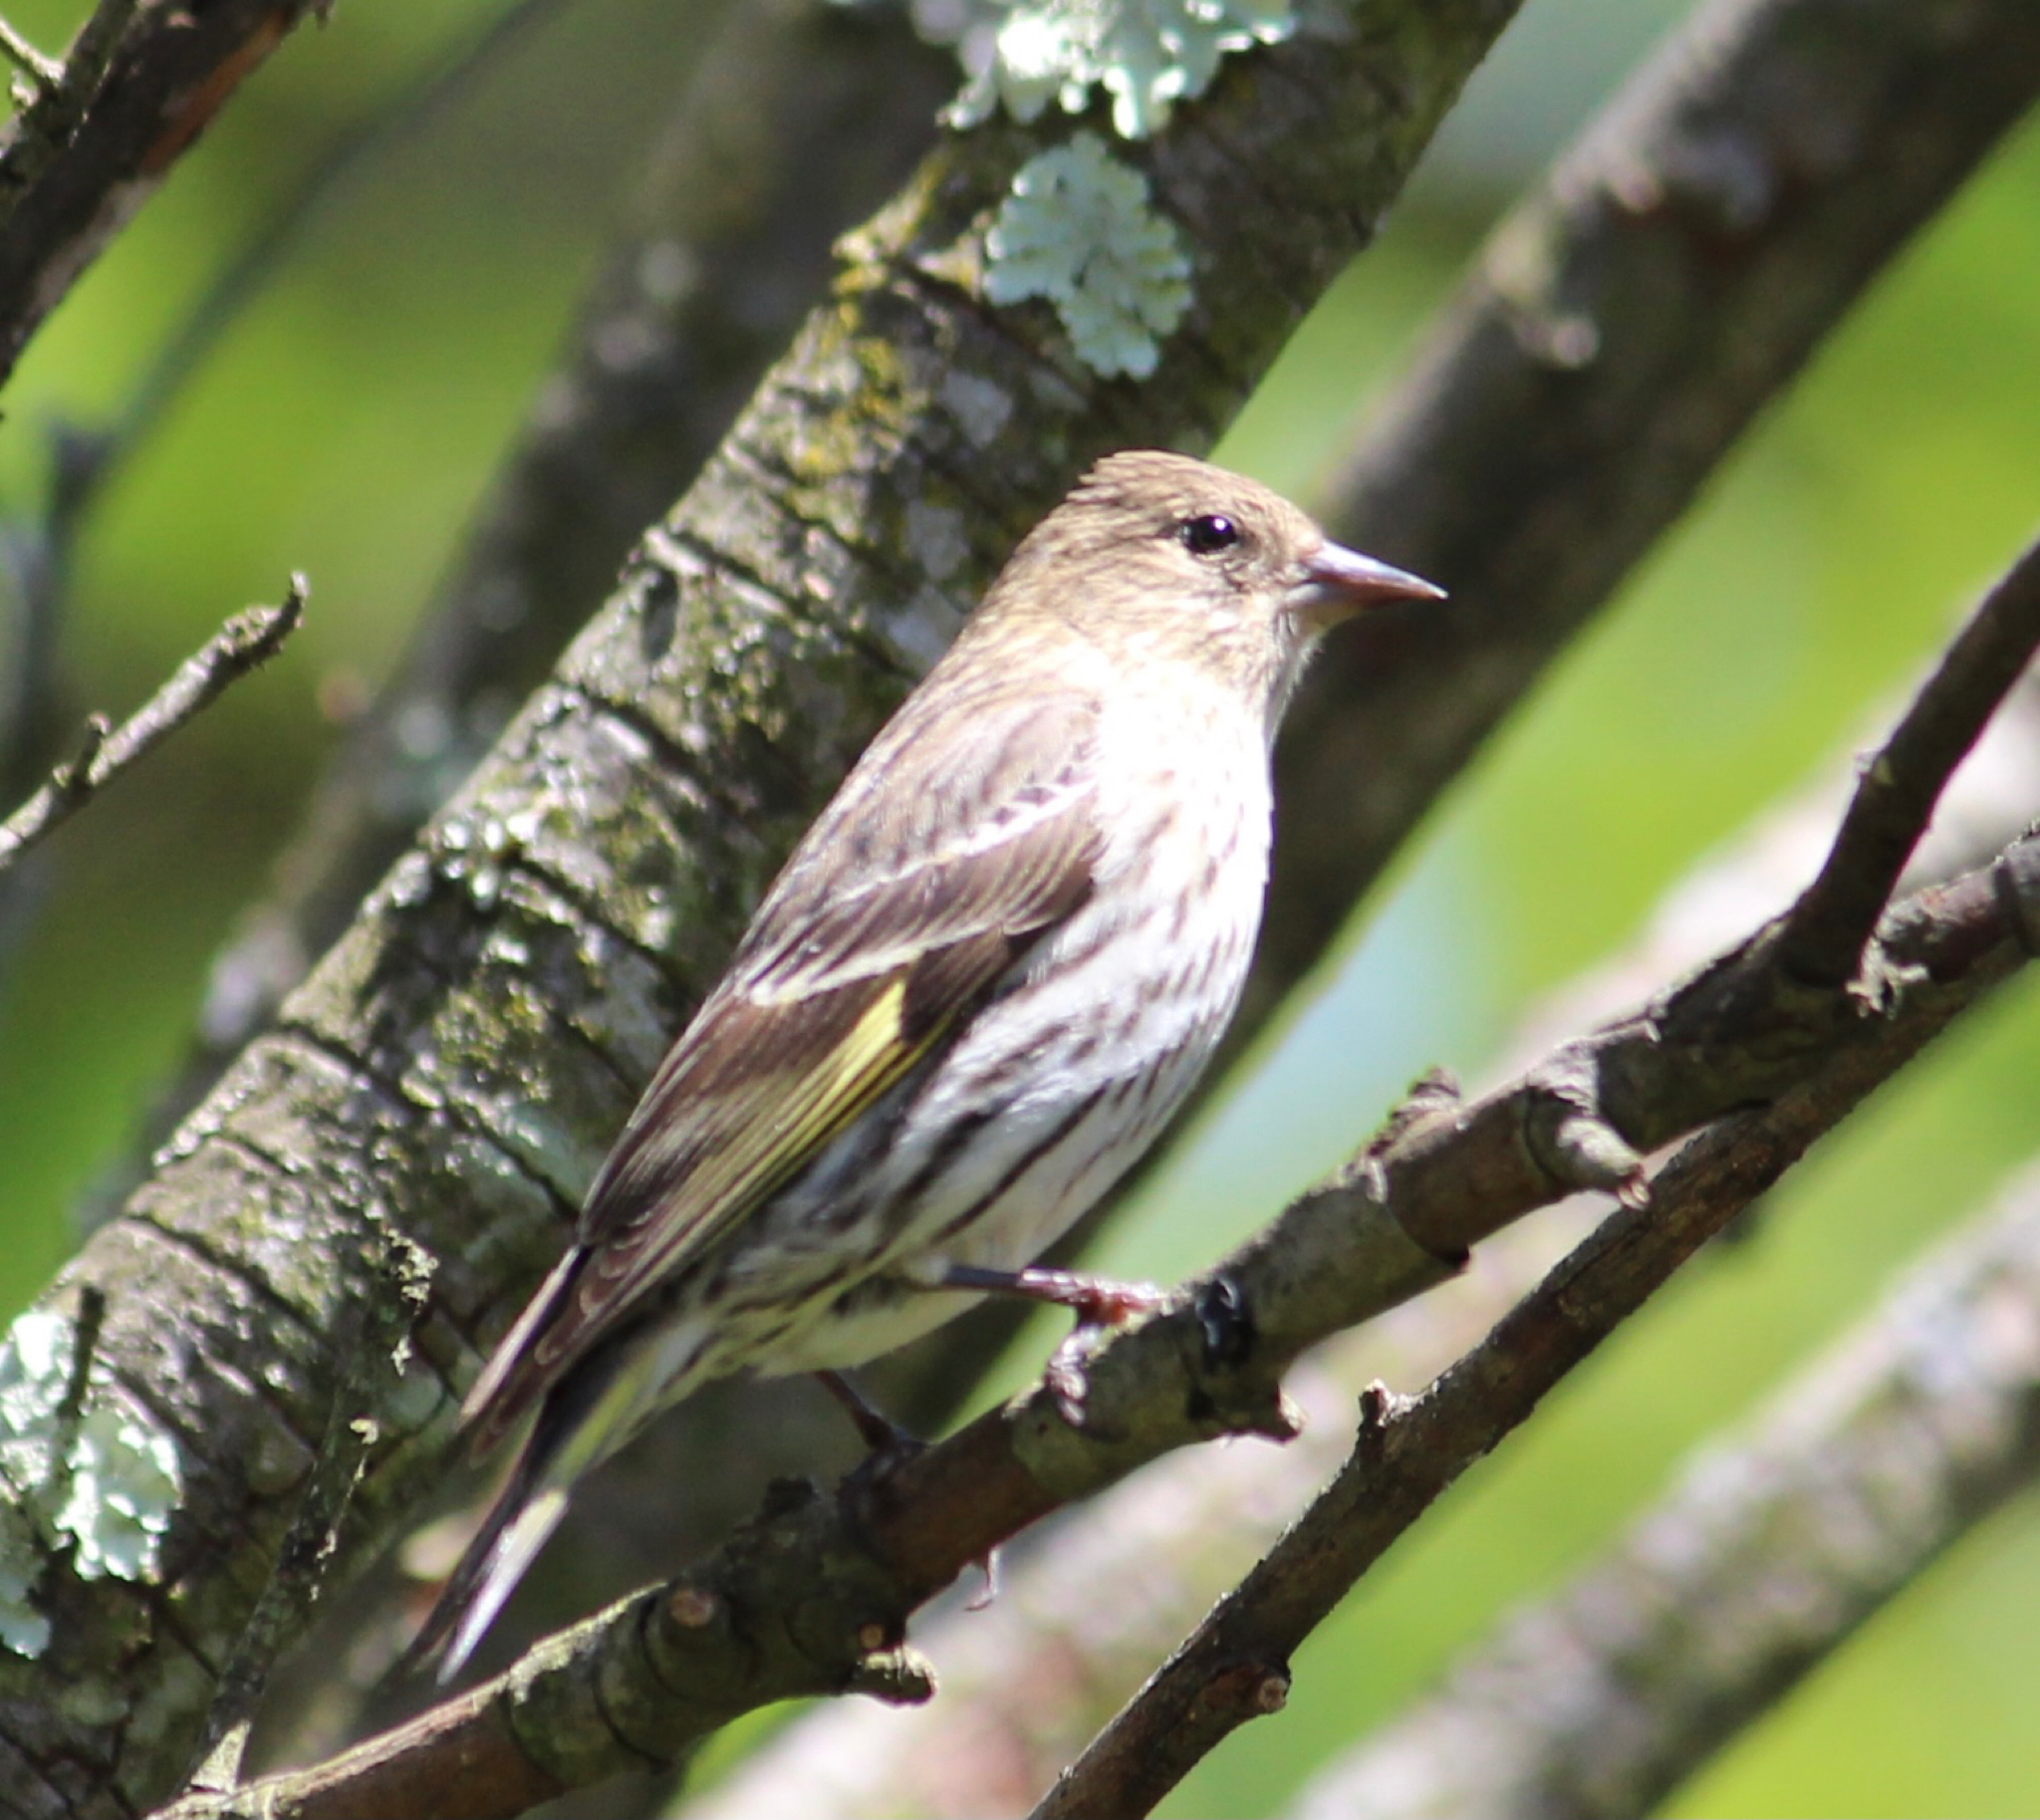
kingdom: Animalia
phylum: Chordata
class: Aves
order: Passeriformes
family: Fringillidae
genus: Spinus
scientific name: Spinus pinus
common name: Pine siskin
